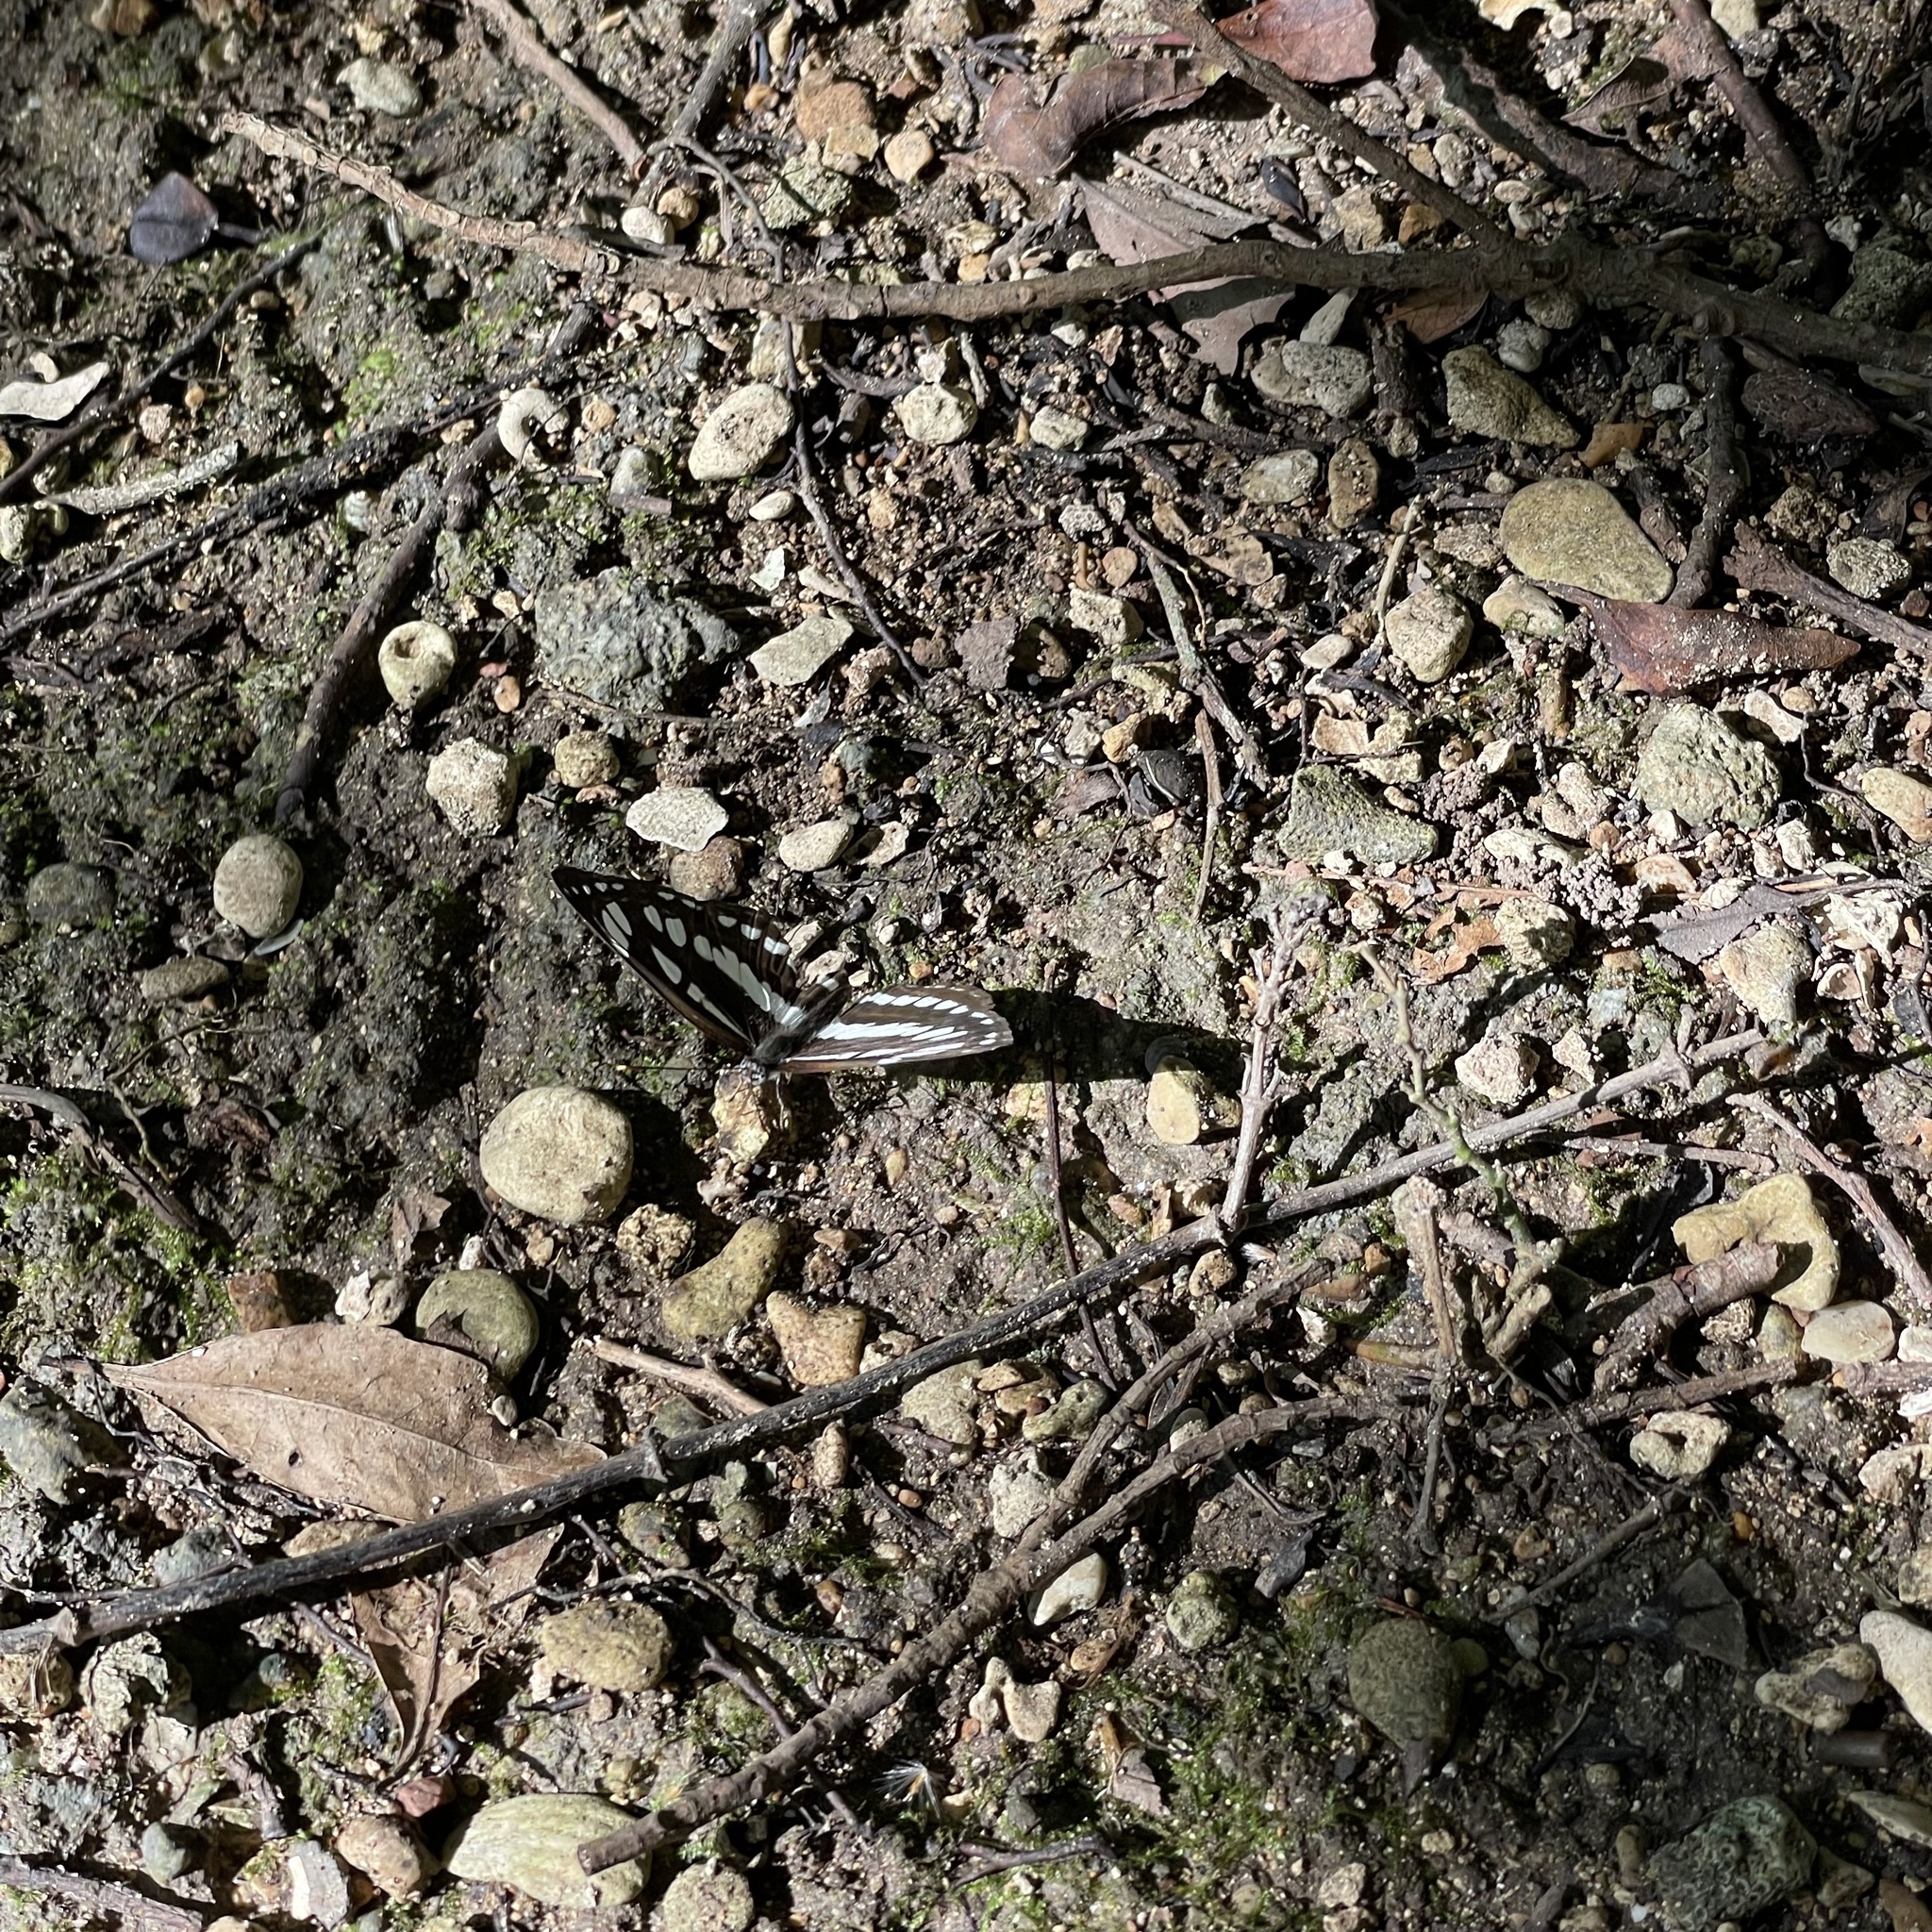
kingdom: Animalia
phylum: Arthropoda
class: Insecta
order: Lepidoptera
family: Nymphalidae
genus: Neptis
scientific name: Neptis hylas
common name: Common sailer
